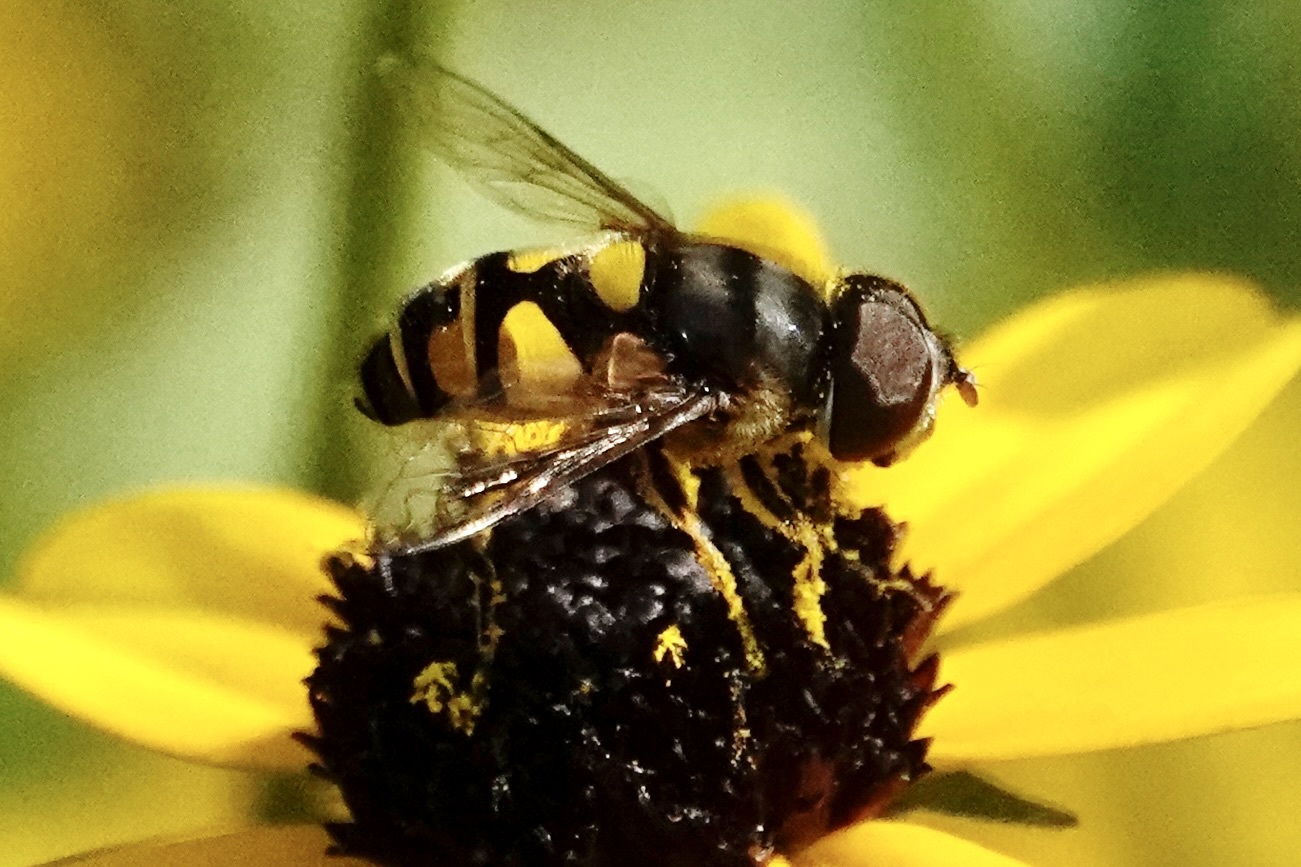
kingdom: Animalia
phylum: Arthropoda
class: Insecta
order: Diptera
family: Syrphidae
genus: Eristalis
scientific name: Eristalis transversa
